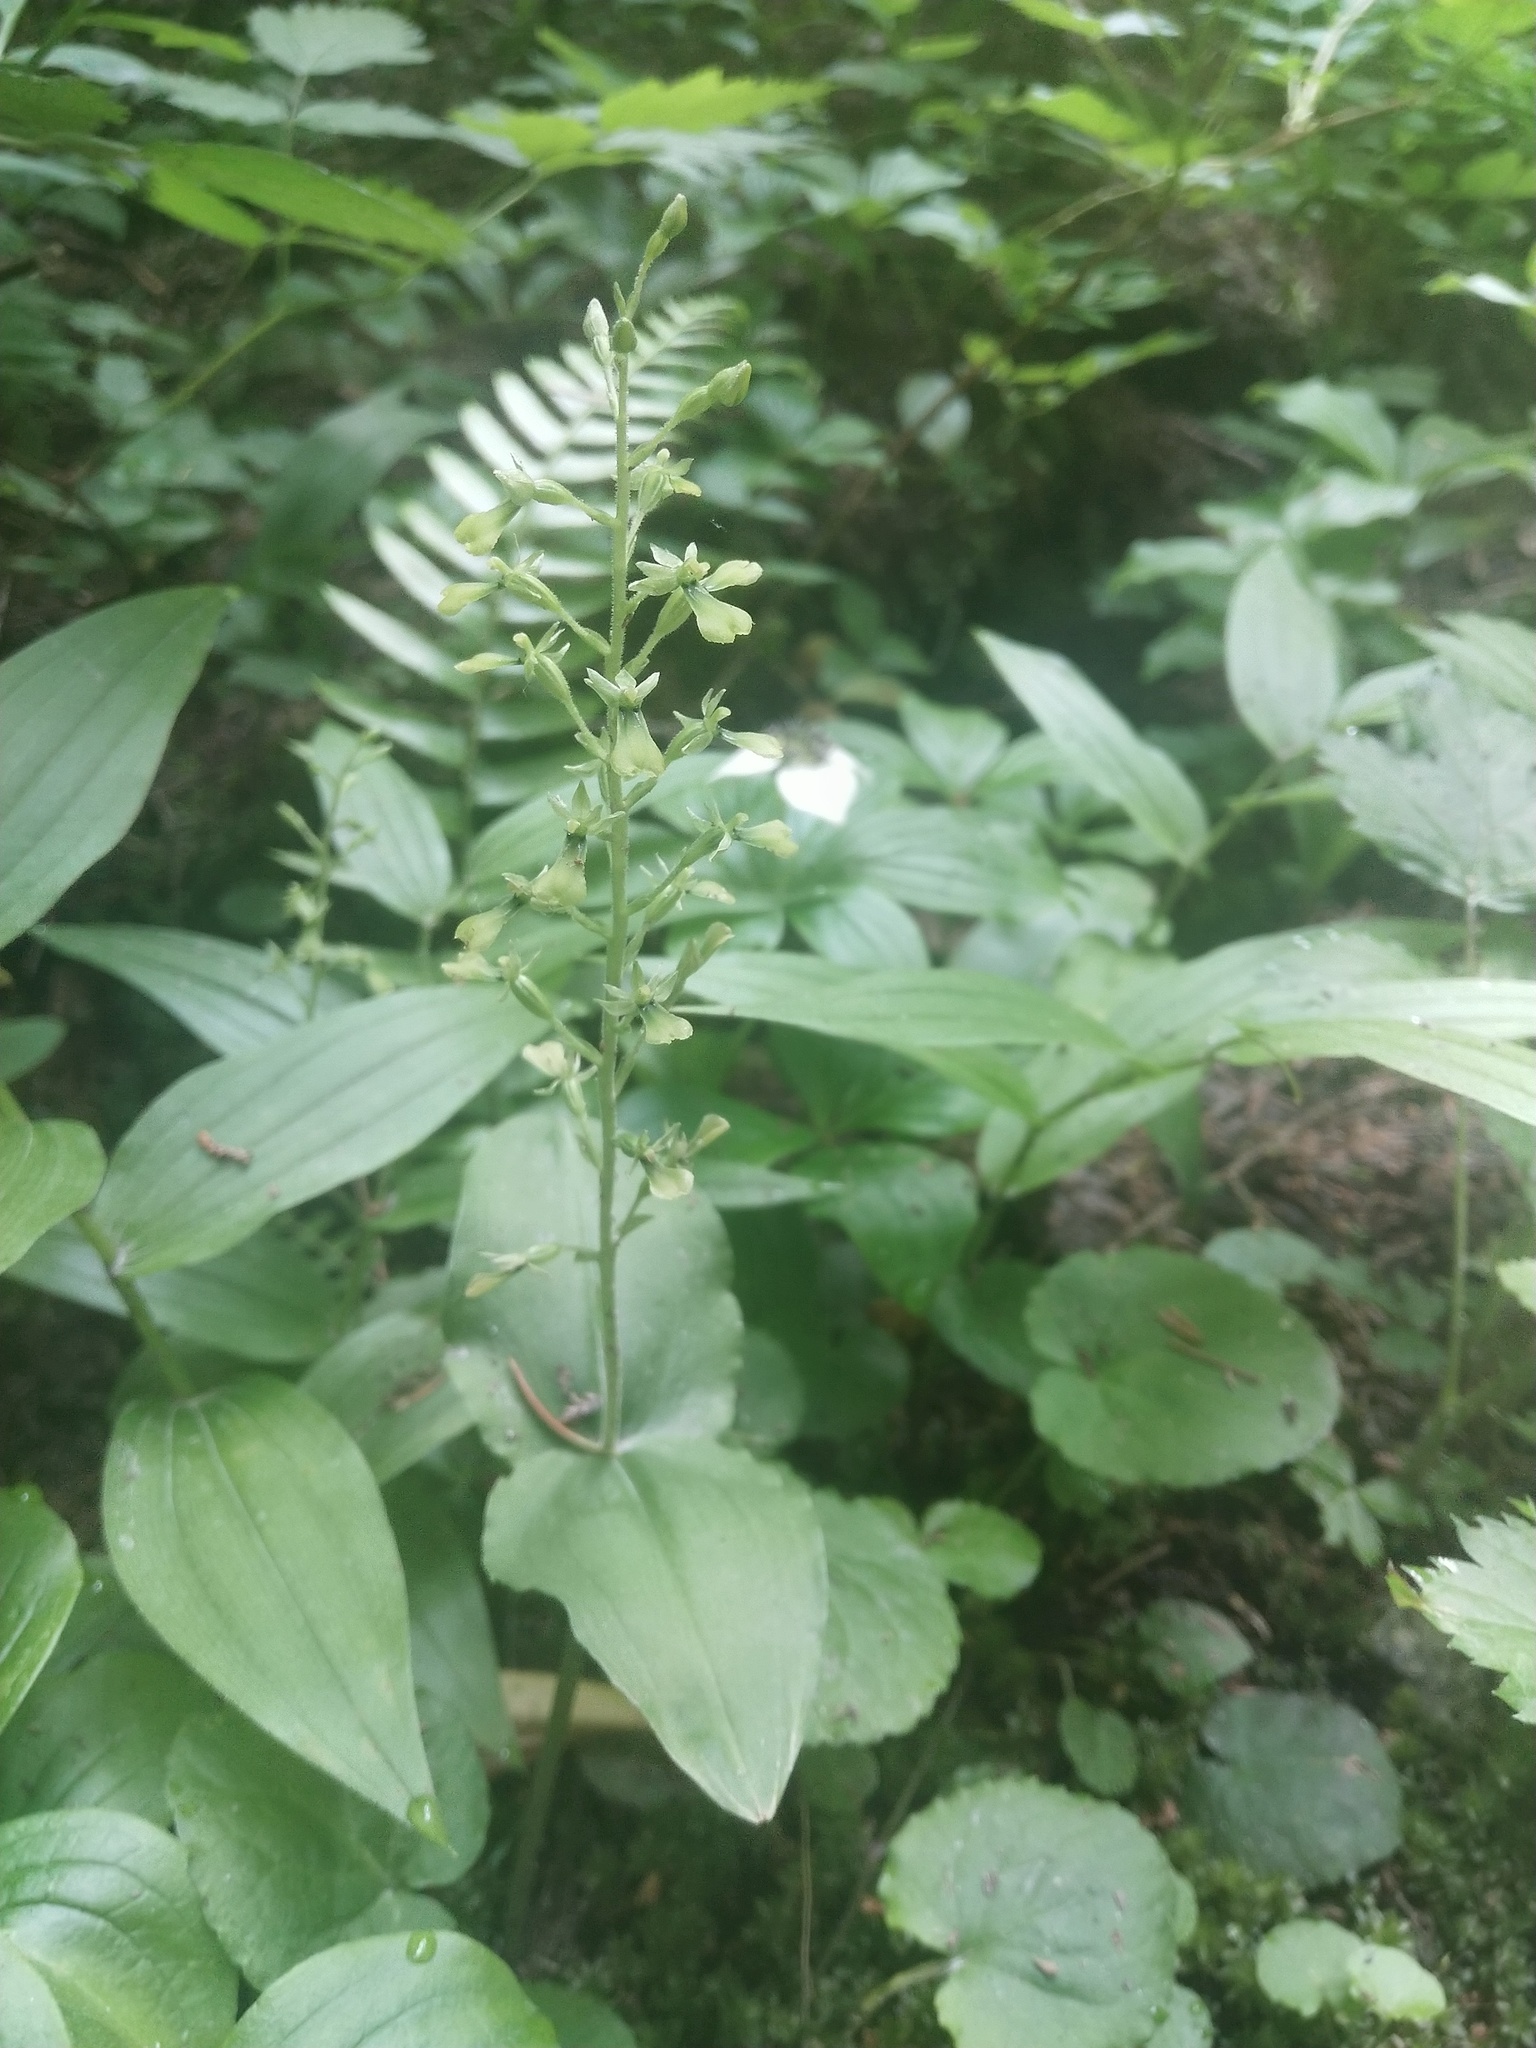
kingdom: Plantae
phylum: Tracheophyta
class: Liliopsida
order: Asparagales
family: Orchidaceae
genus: Neottia
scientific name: Neottia banksiana
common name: Northwestern twayblade
